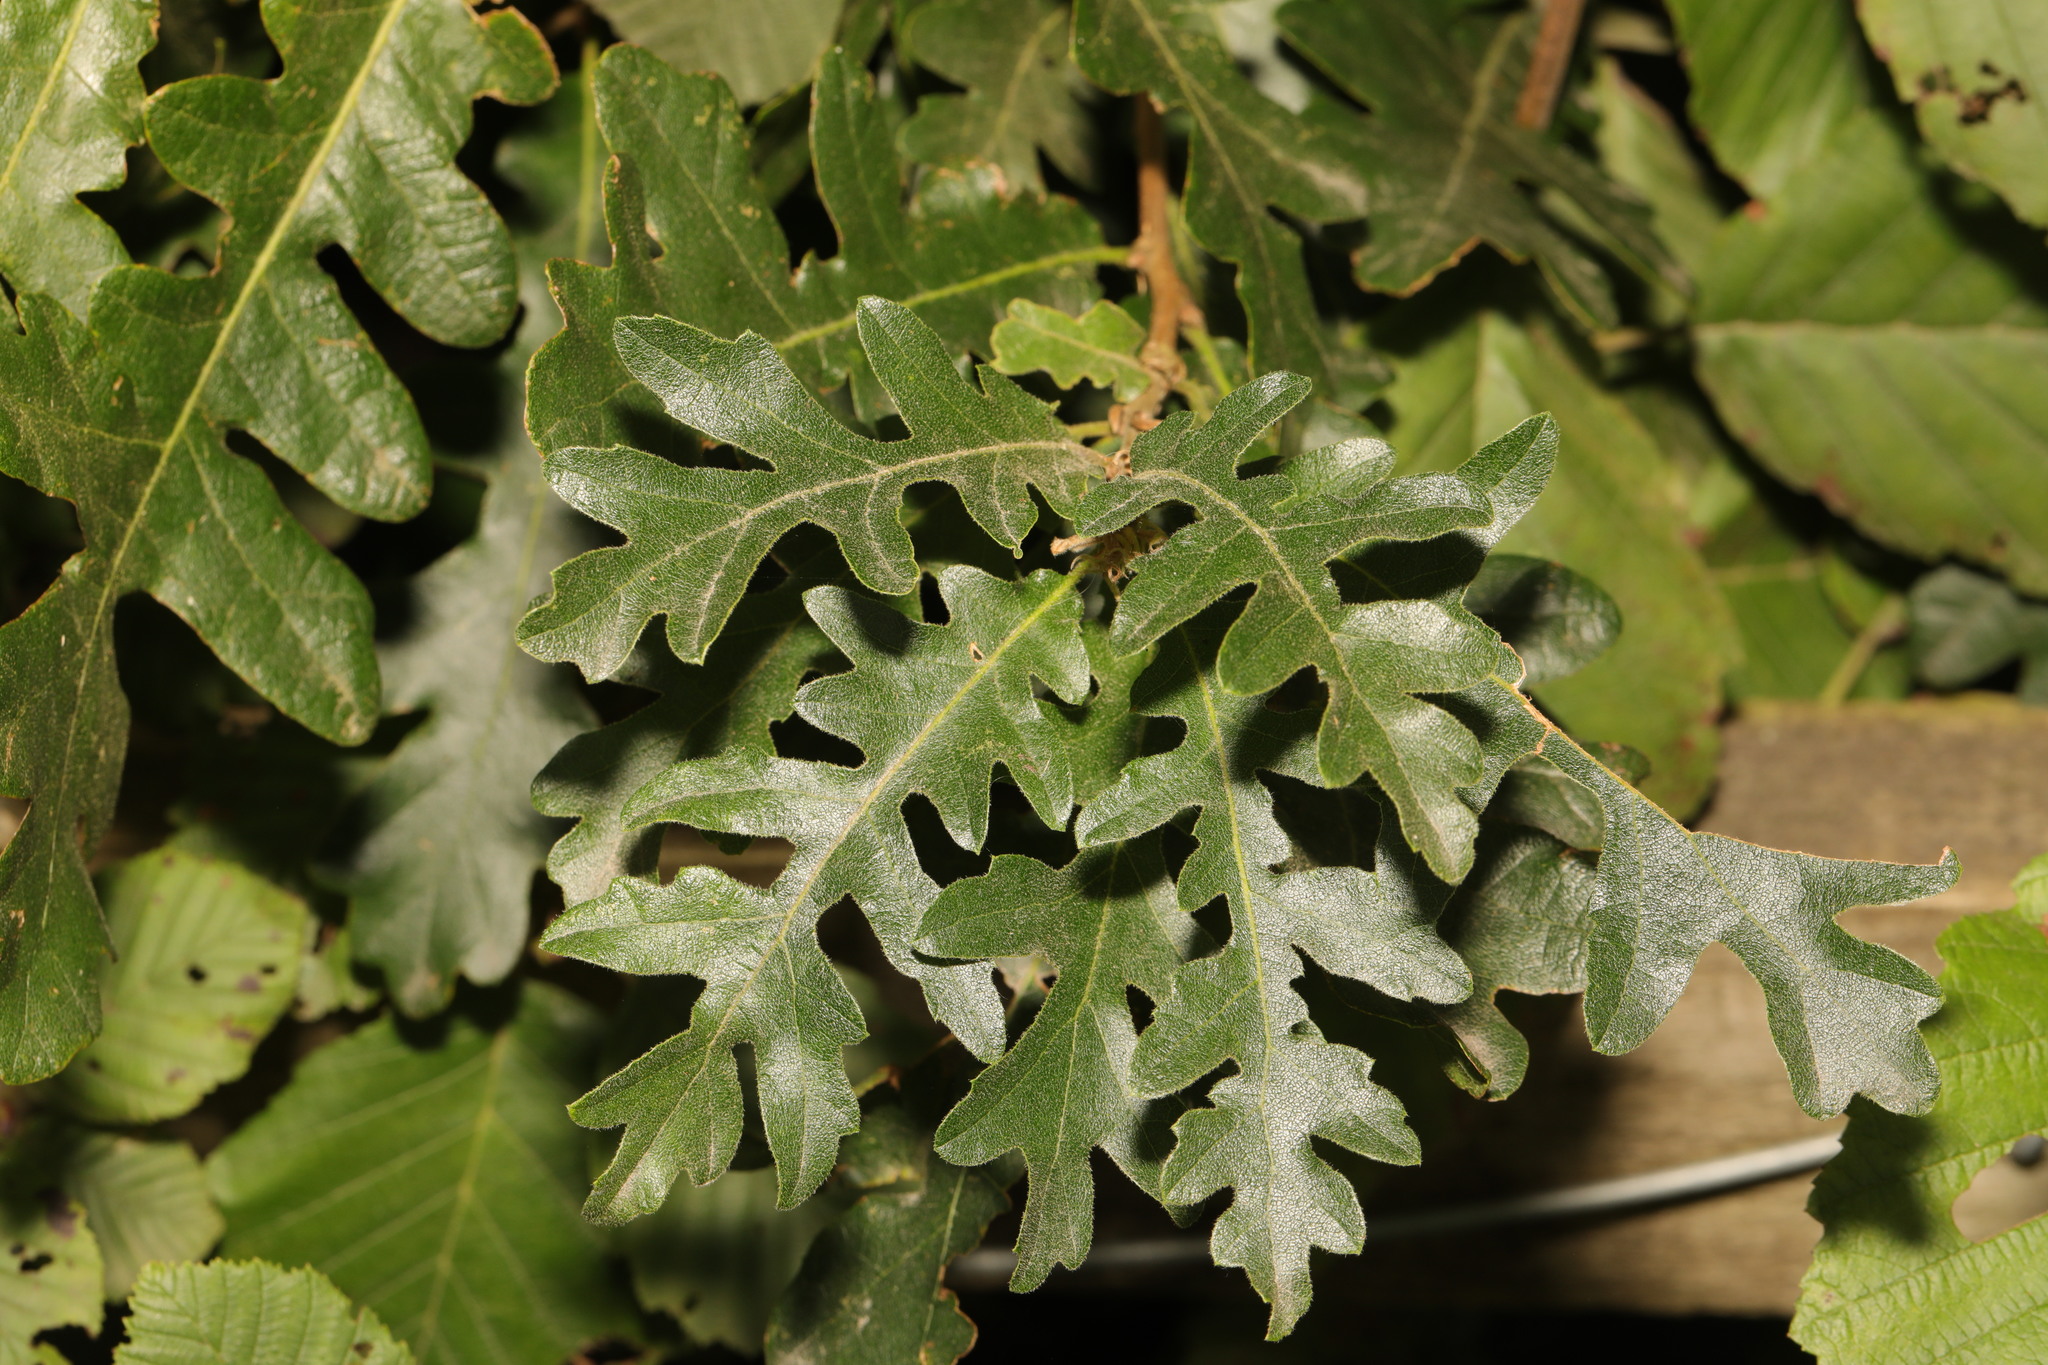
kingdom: Plantae
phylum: Tracheophyta
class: Magnoliopsida
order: Fagales
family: Fagaceae
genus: Quercus
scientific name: Quercus cerris
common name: Turkey oak
